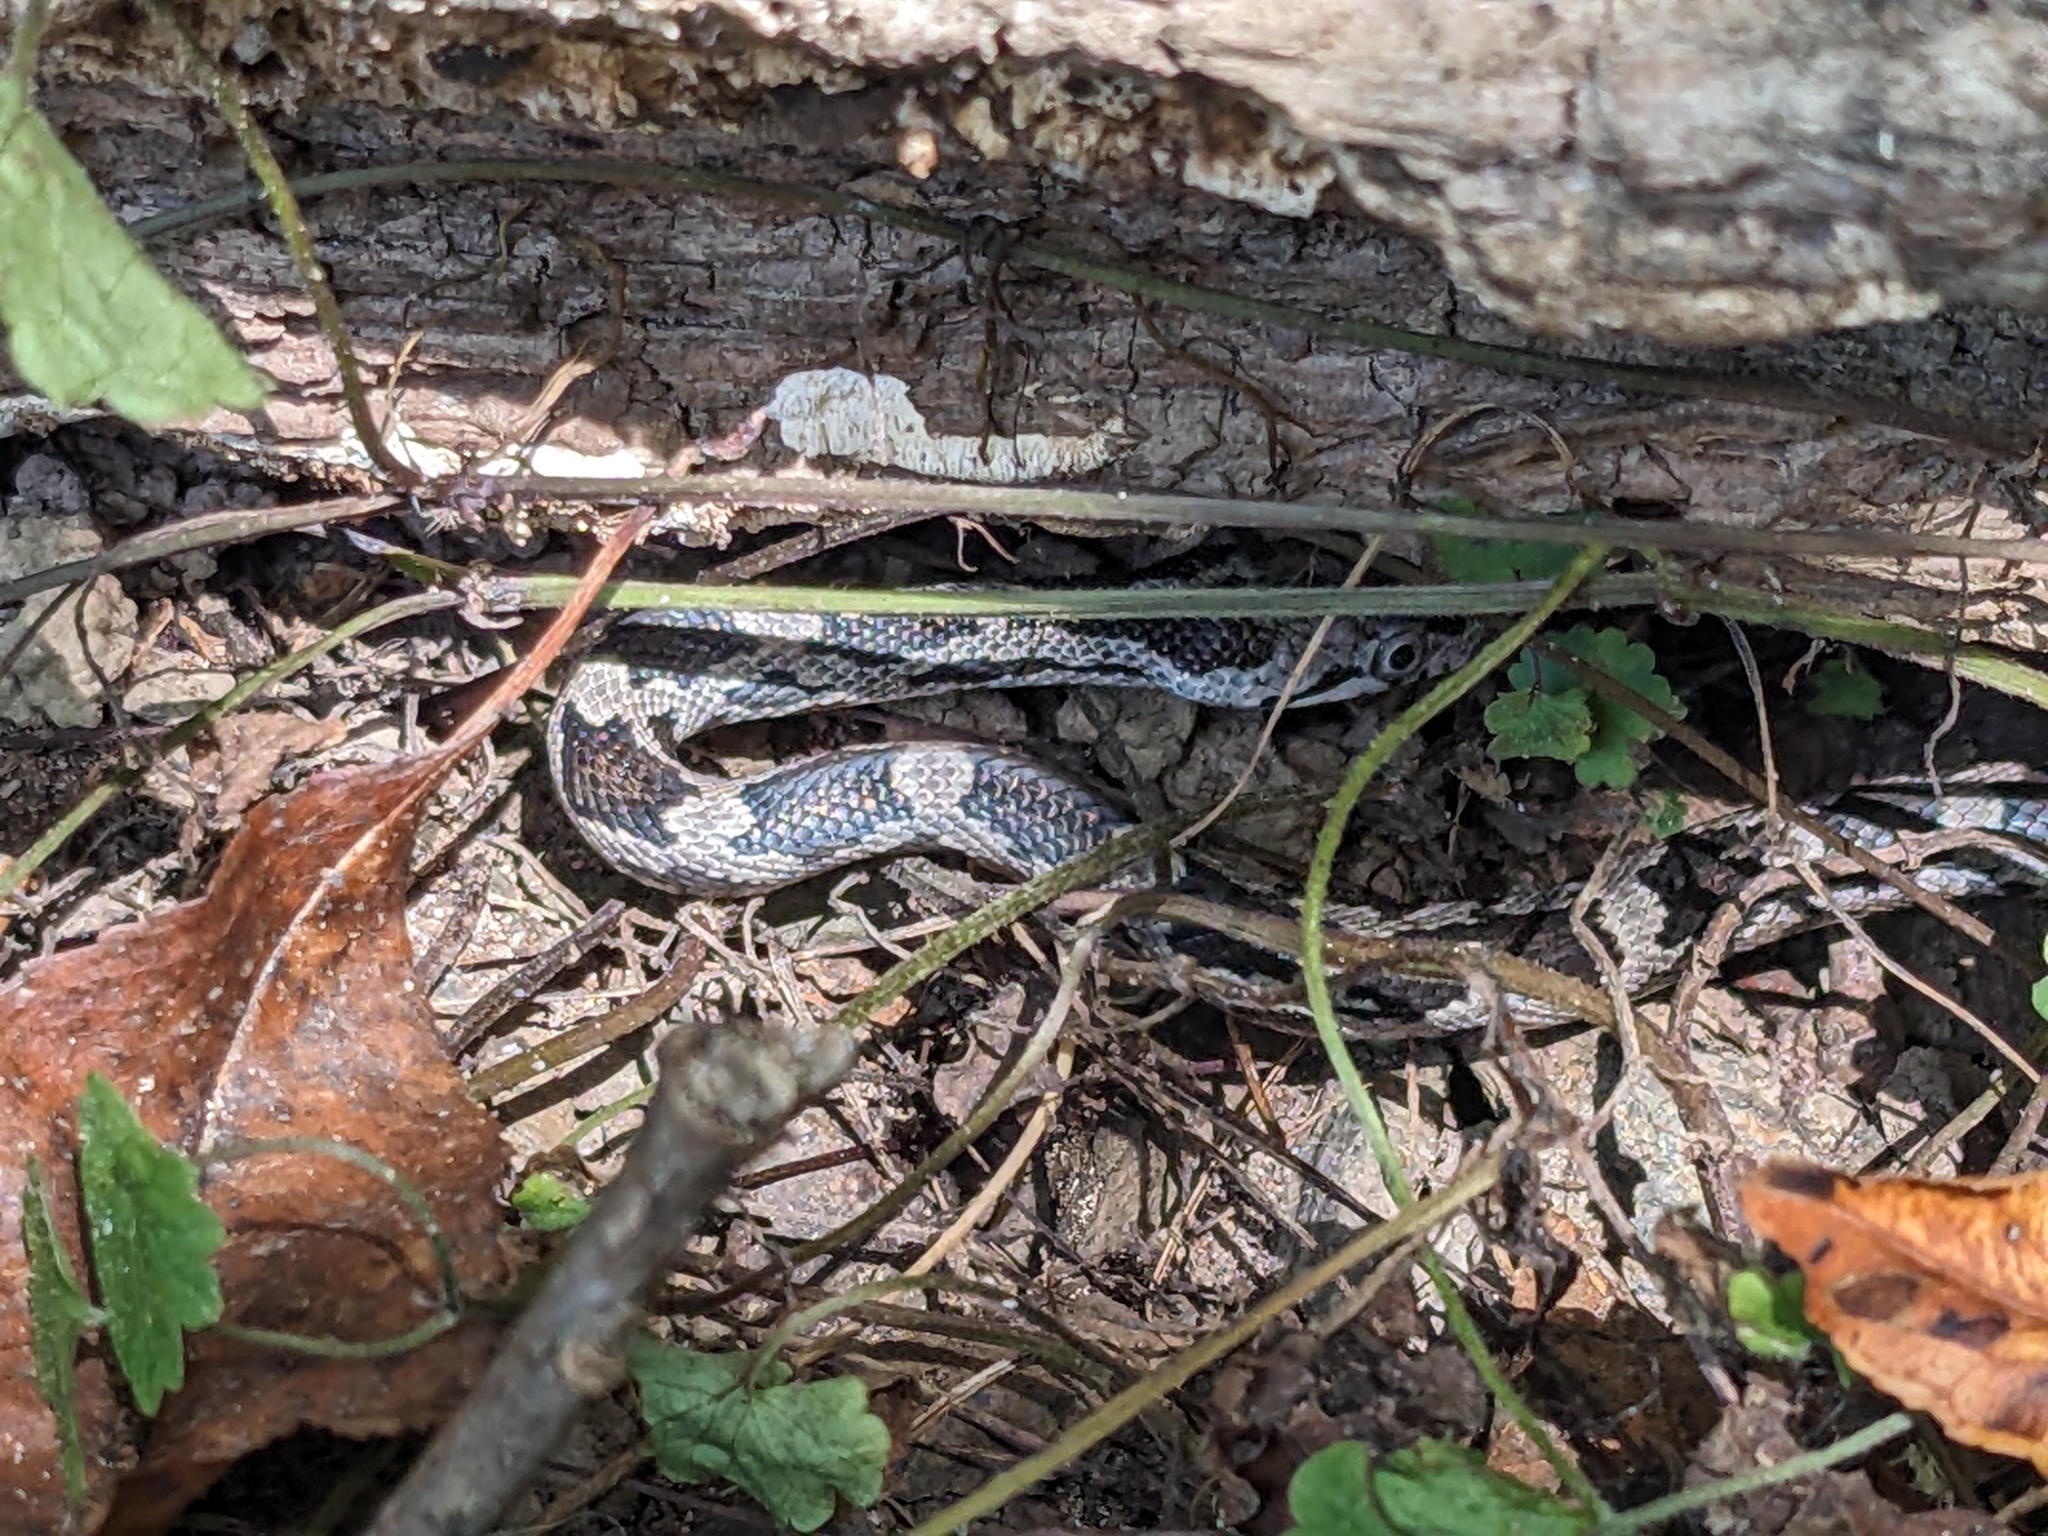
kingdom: Animalia
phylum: Chordata
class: Squamata
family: Colubridae
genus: Pantherophis
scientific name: Pantherophis
